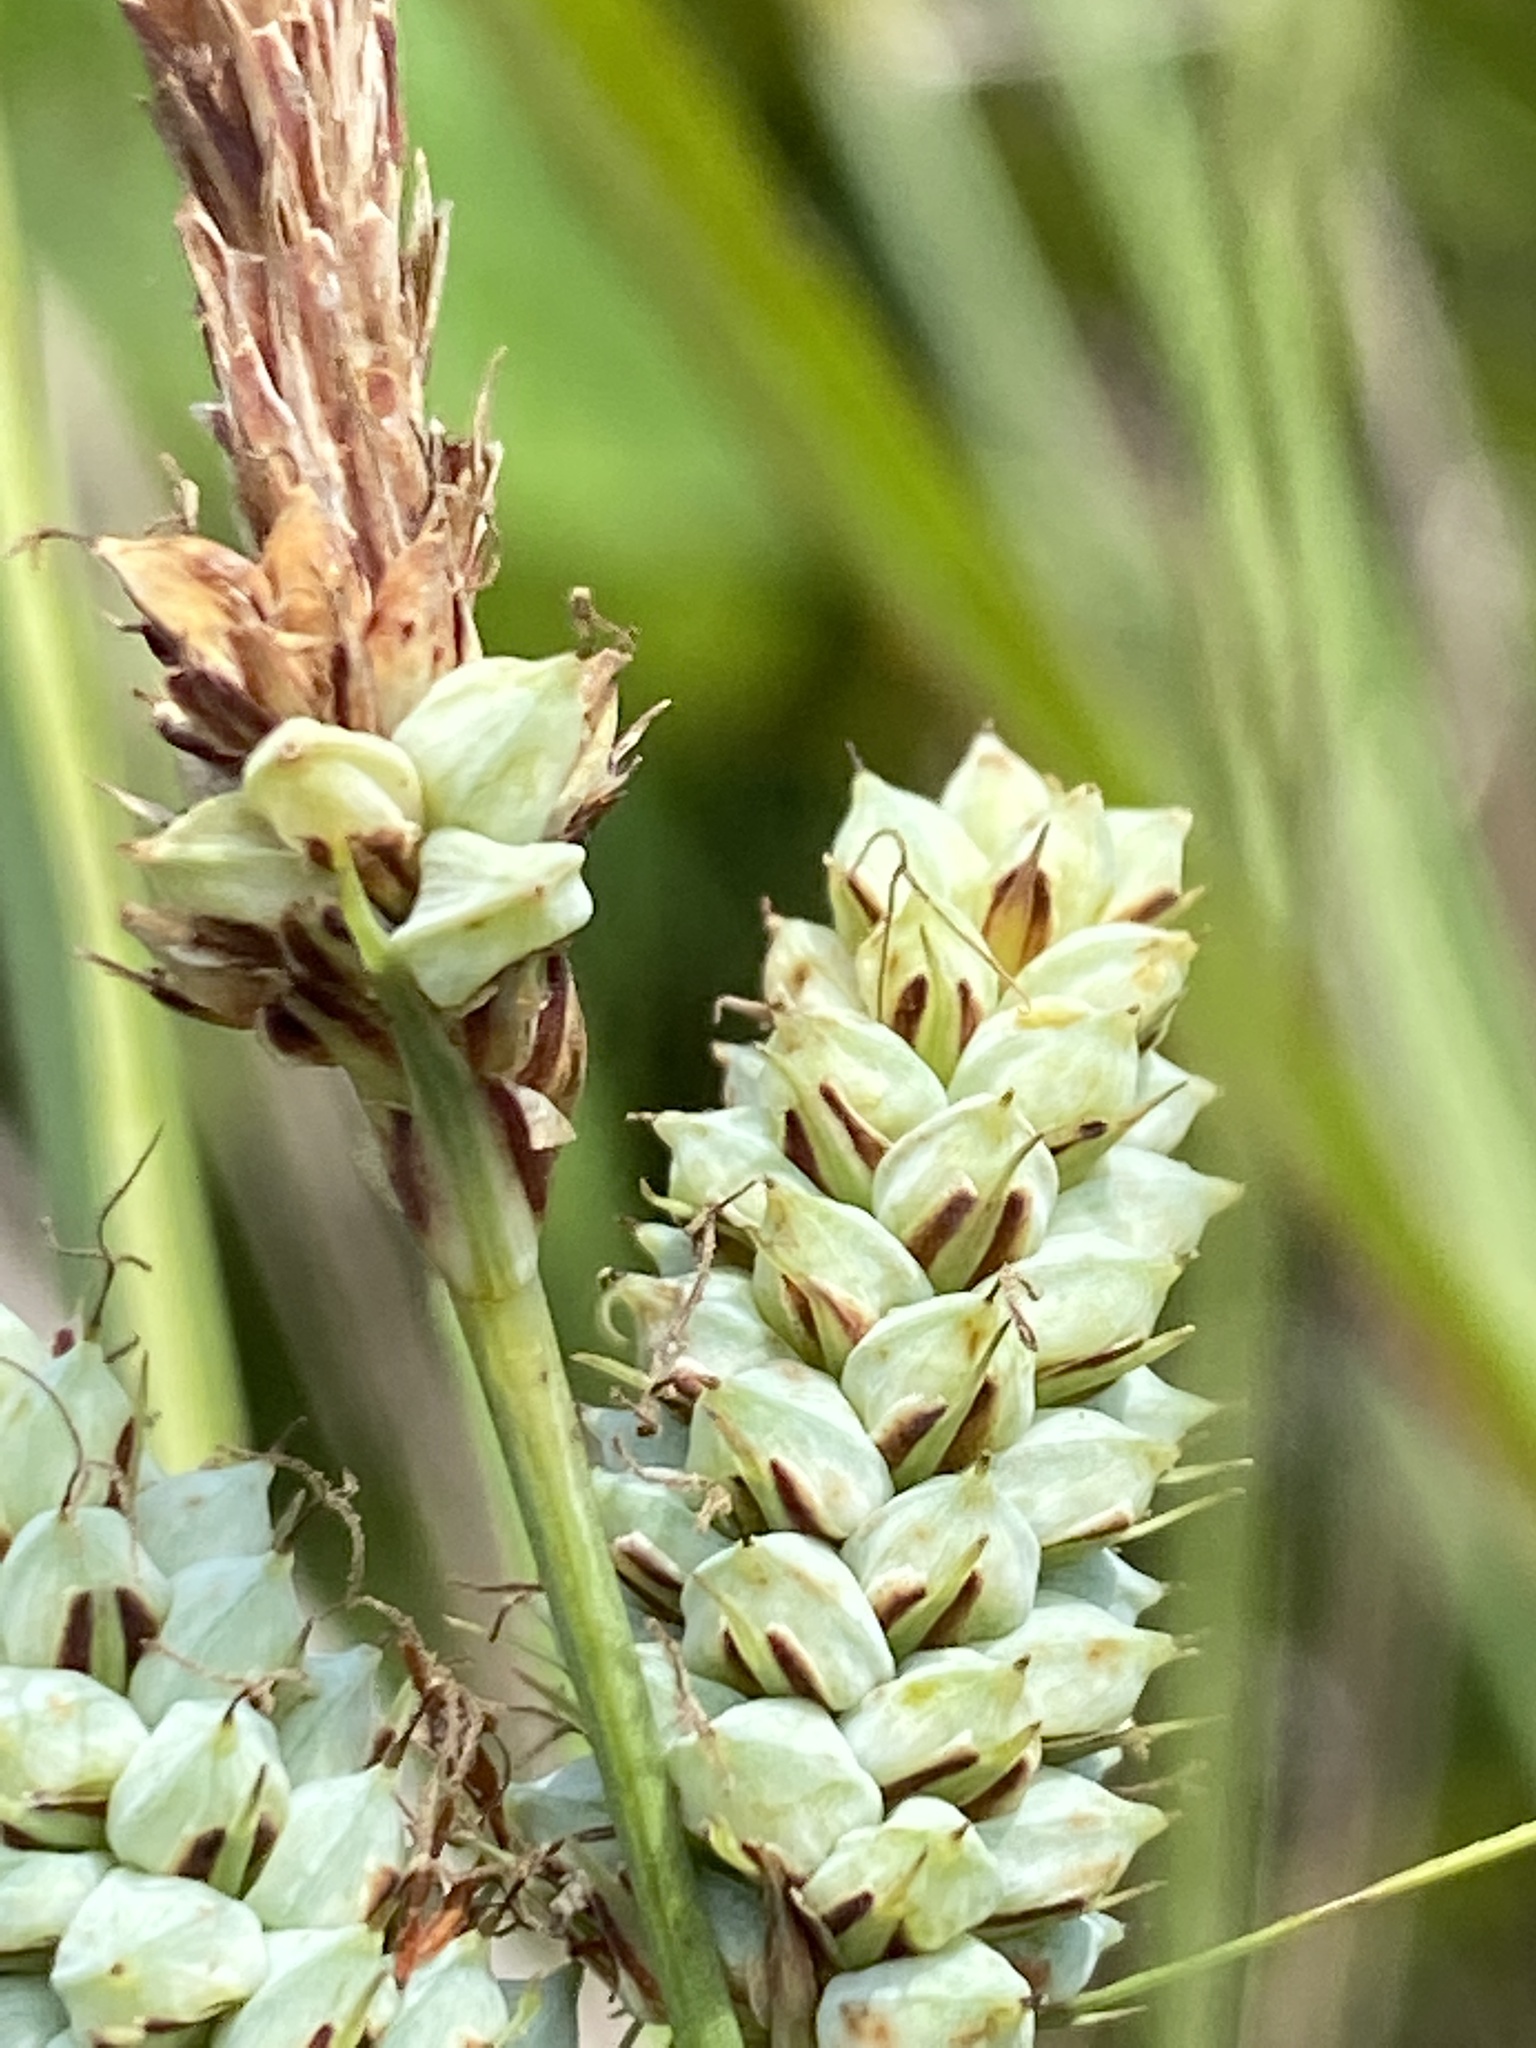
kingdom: Plantae
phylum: Tracheophyta
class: Liliopsida
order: Poales
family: Cyperaceae
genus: Carex
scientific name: Carex verrucosa
